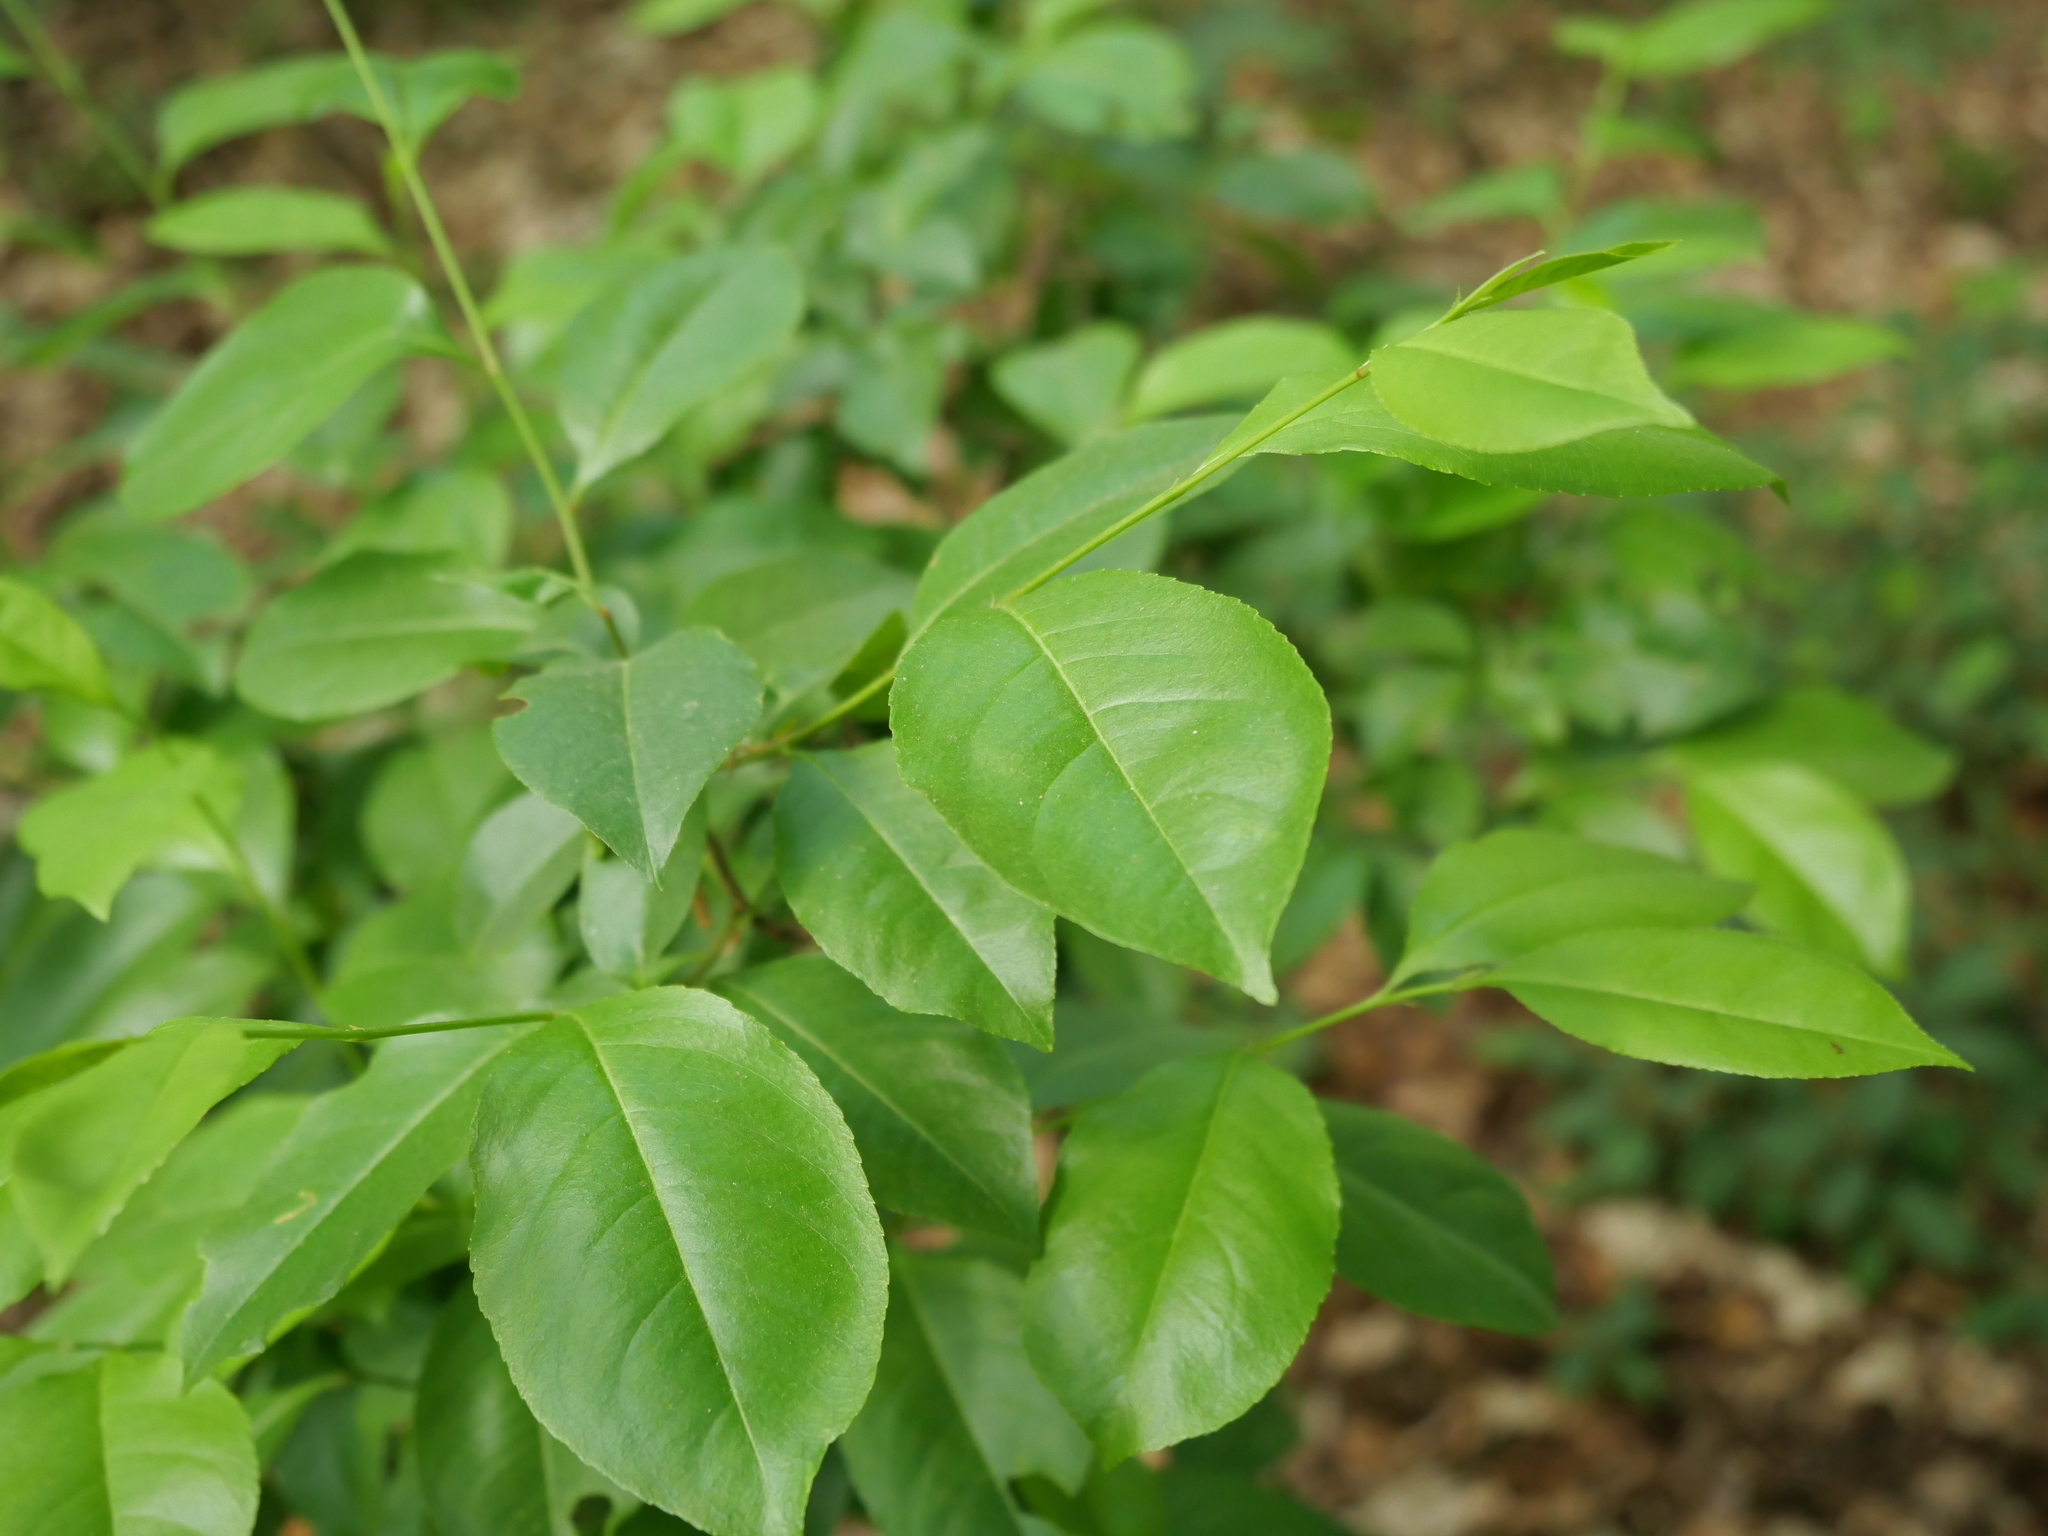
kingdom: Plantae
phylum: Tracheophyta
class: Magnoliopsida
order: Rosales
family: Rosaceae
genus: Prunus
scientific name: Prunus serotina
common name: Black cherry
